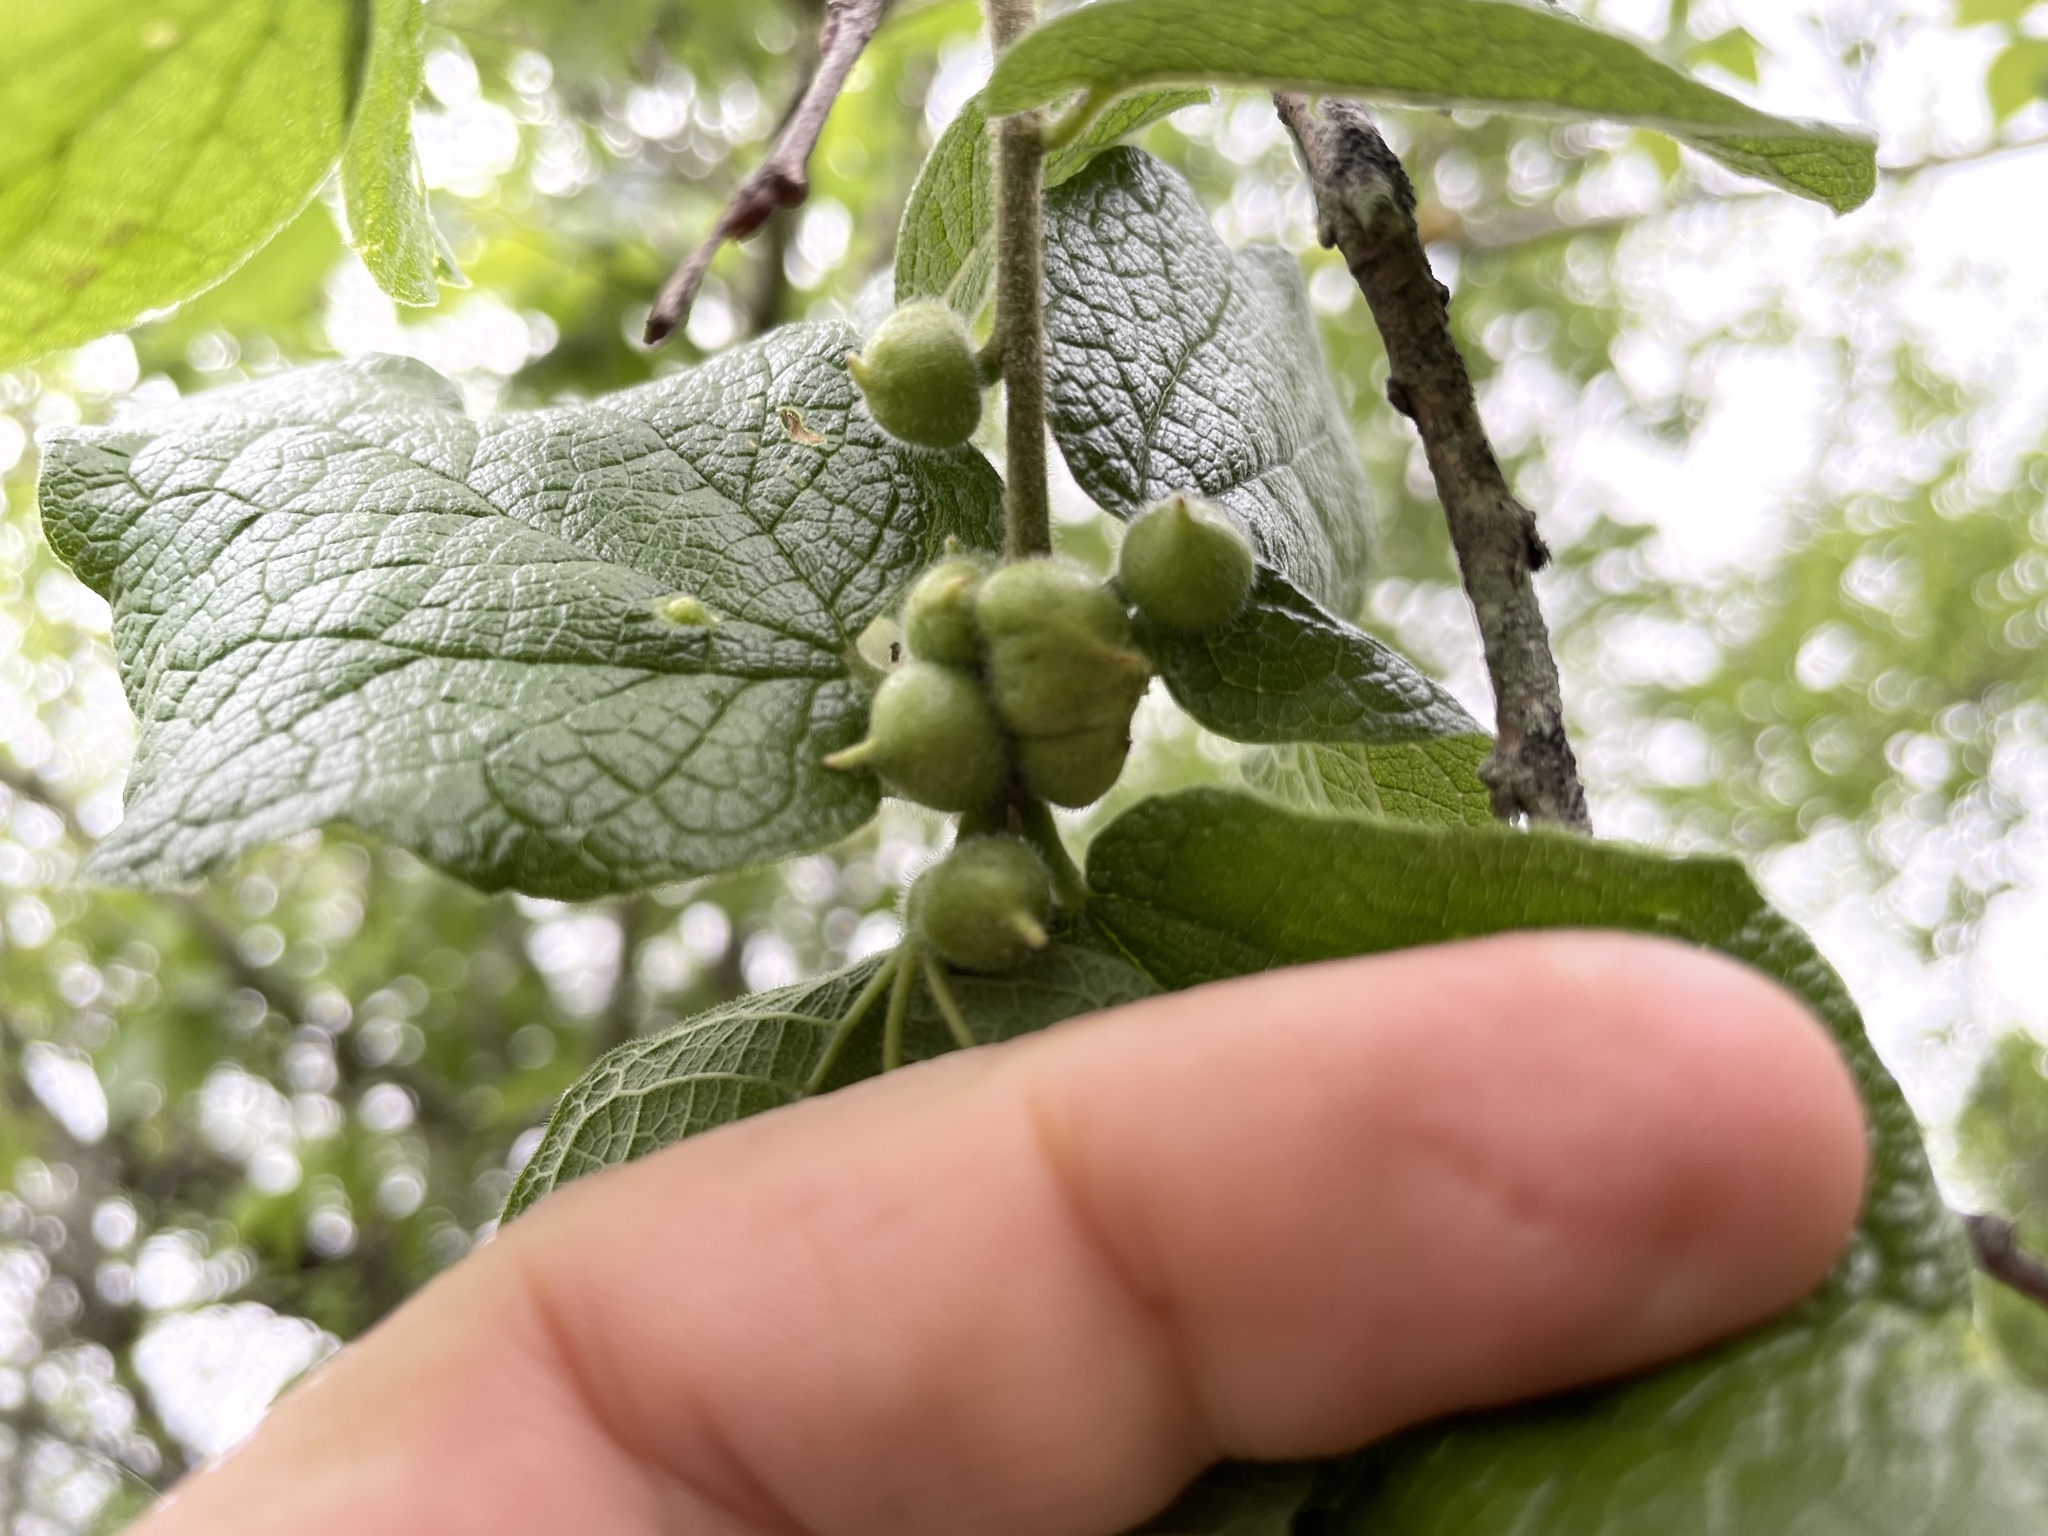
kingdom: Animalia
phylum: Arthropoda
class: Insecta
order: Diptera
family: Cecidomyiidae
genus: Celticecis
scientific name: Celticecis connata
